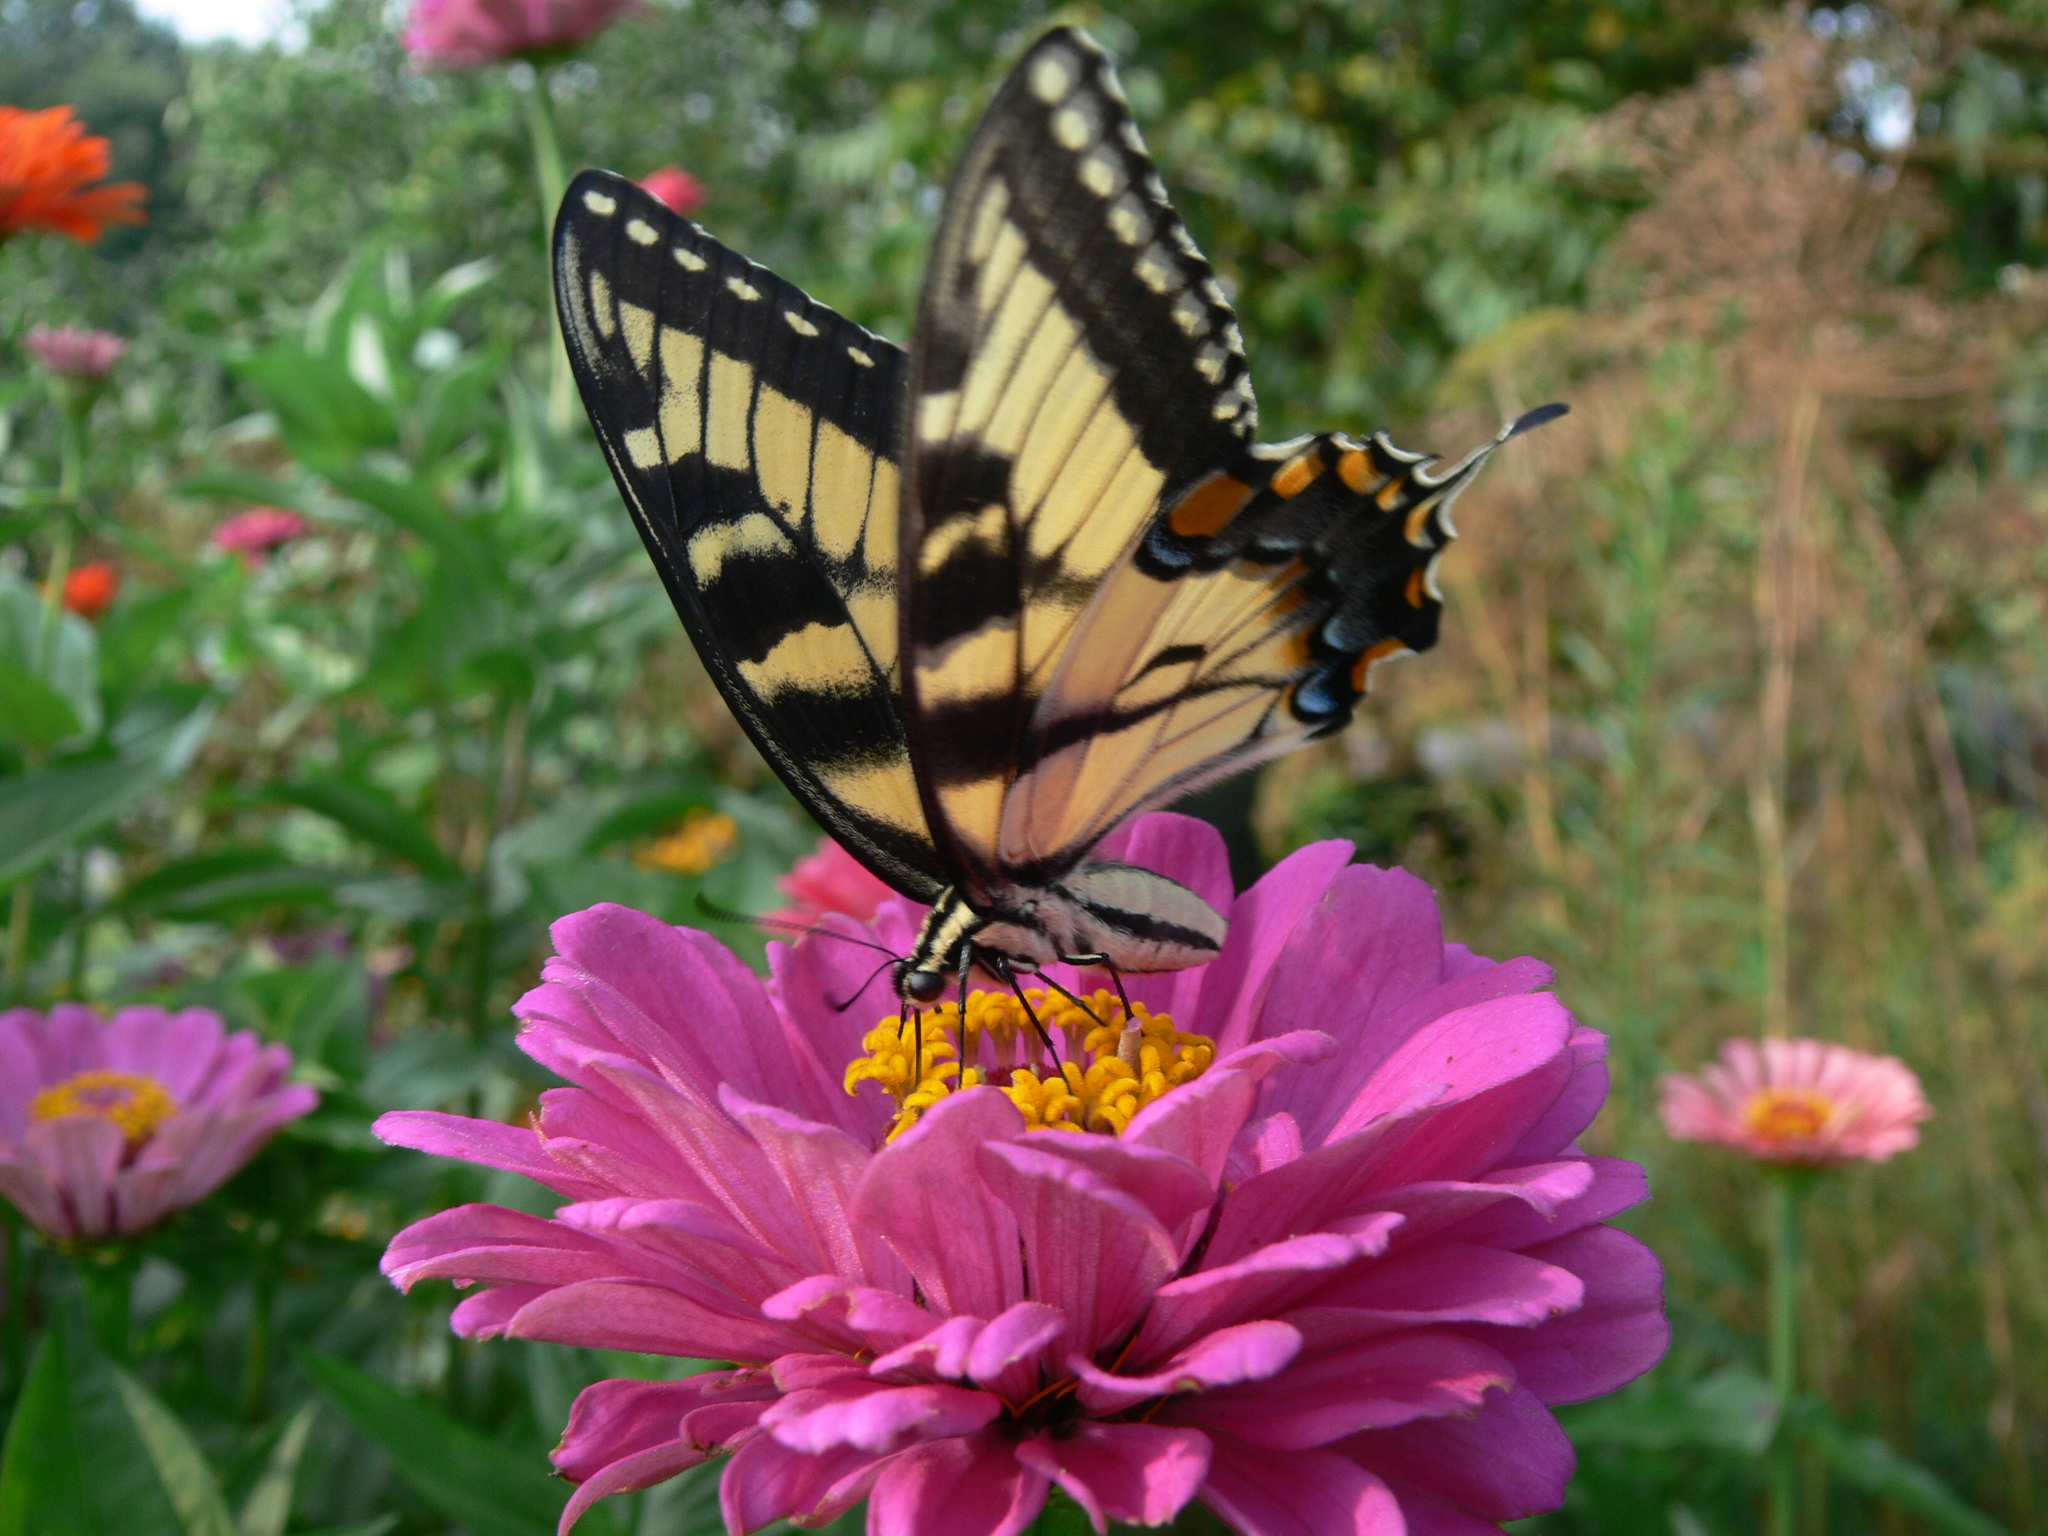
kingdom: Animalia
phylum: Arthropoda
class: Insecta
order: Lepidoptera
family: Papilionidae
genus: Papilio
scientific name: Papilio glaucus
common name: Tiger swallowtail
